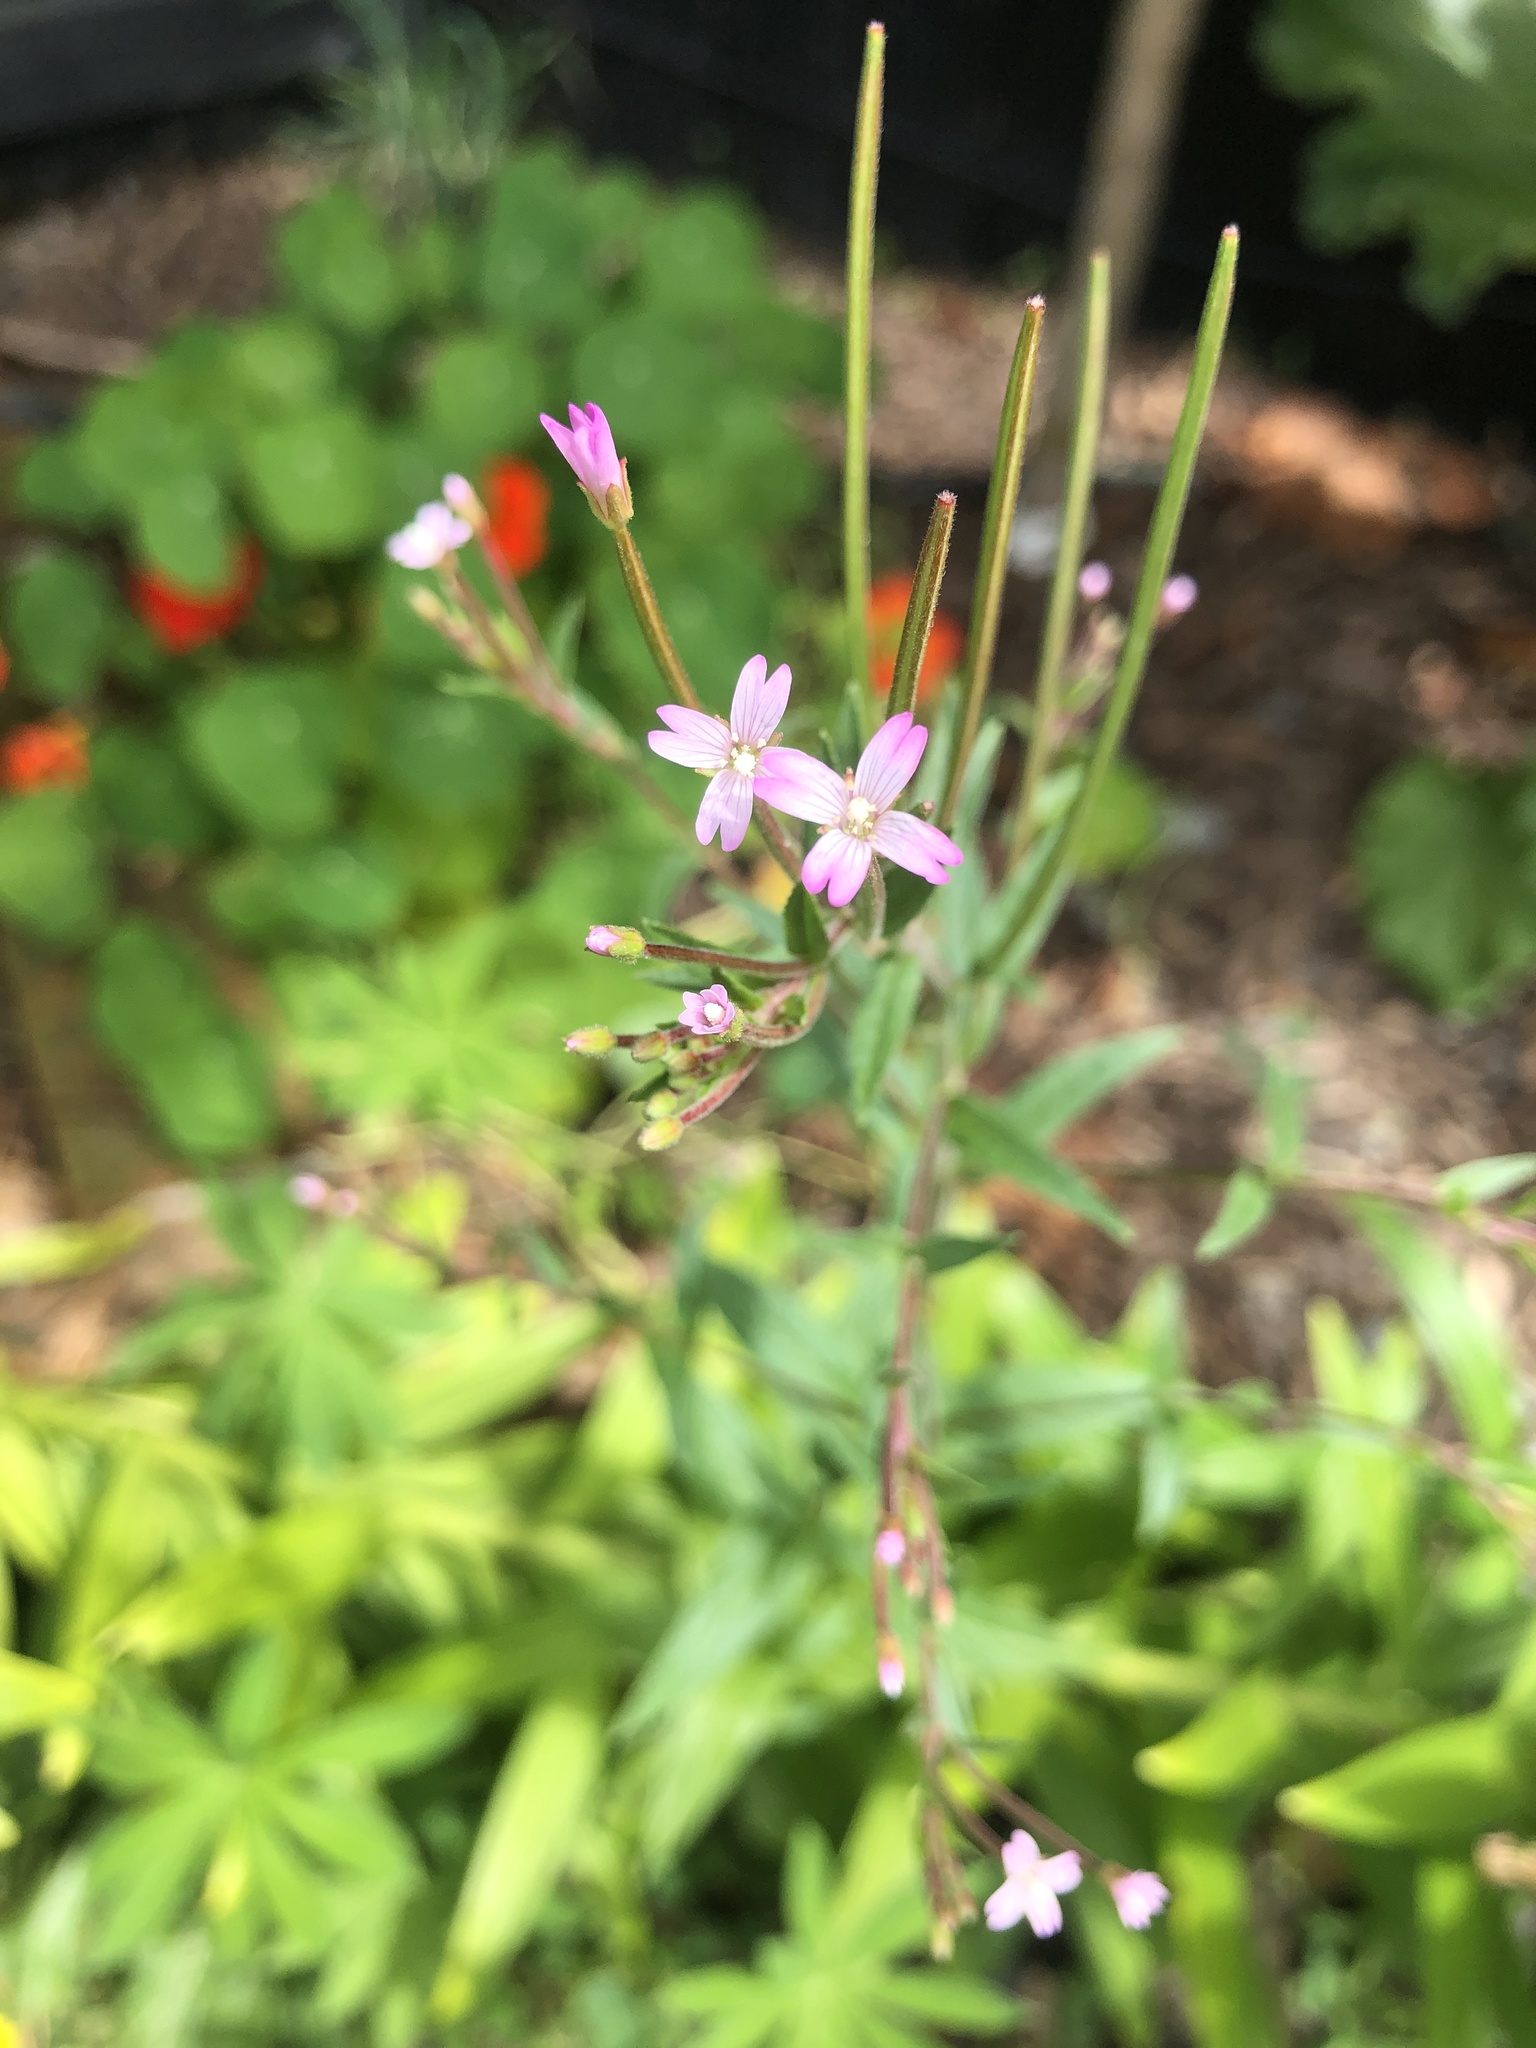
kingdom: Plantae
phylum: Tracheophyta
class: Magnoliopsida
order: Myrtales
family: Onagraceae
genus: Epilobium
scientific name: Epilobium tetragonum
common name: Square-stemmed willowherb
